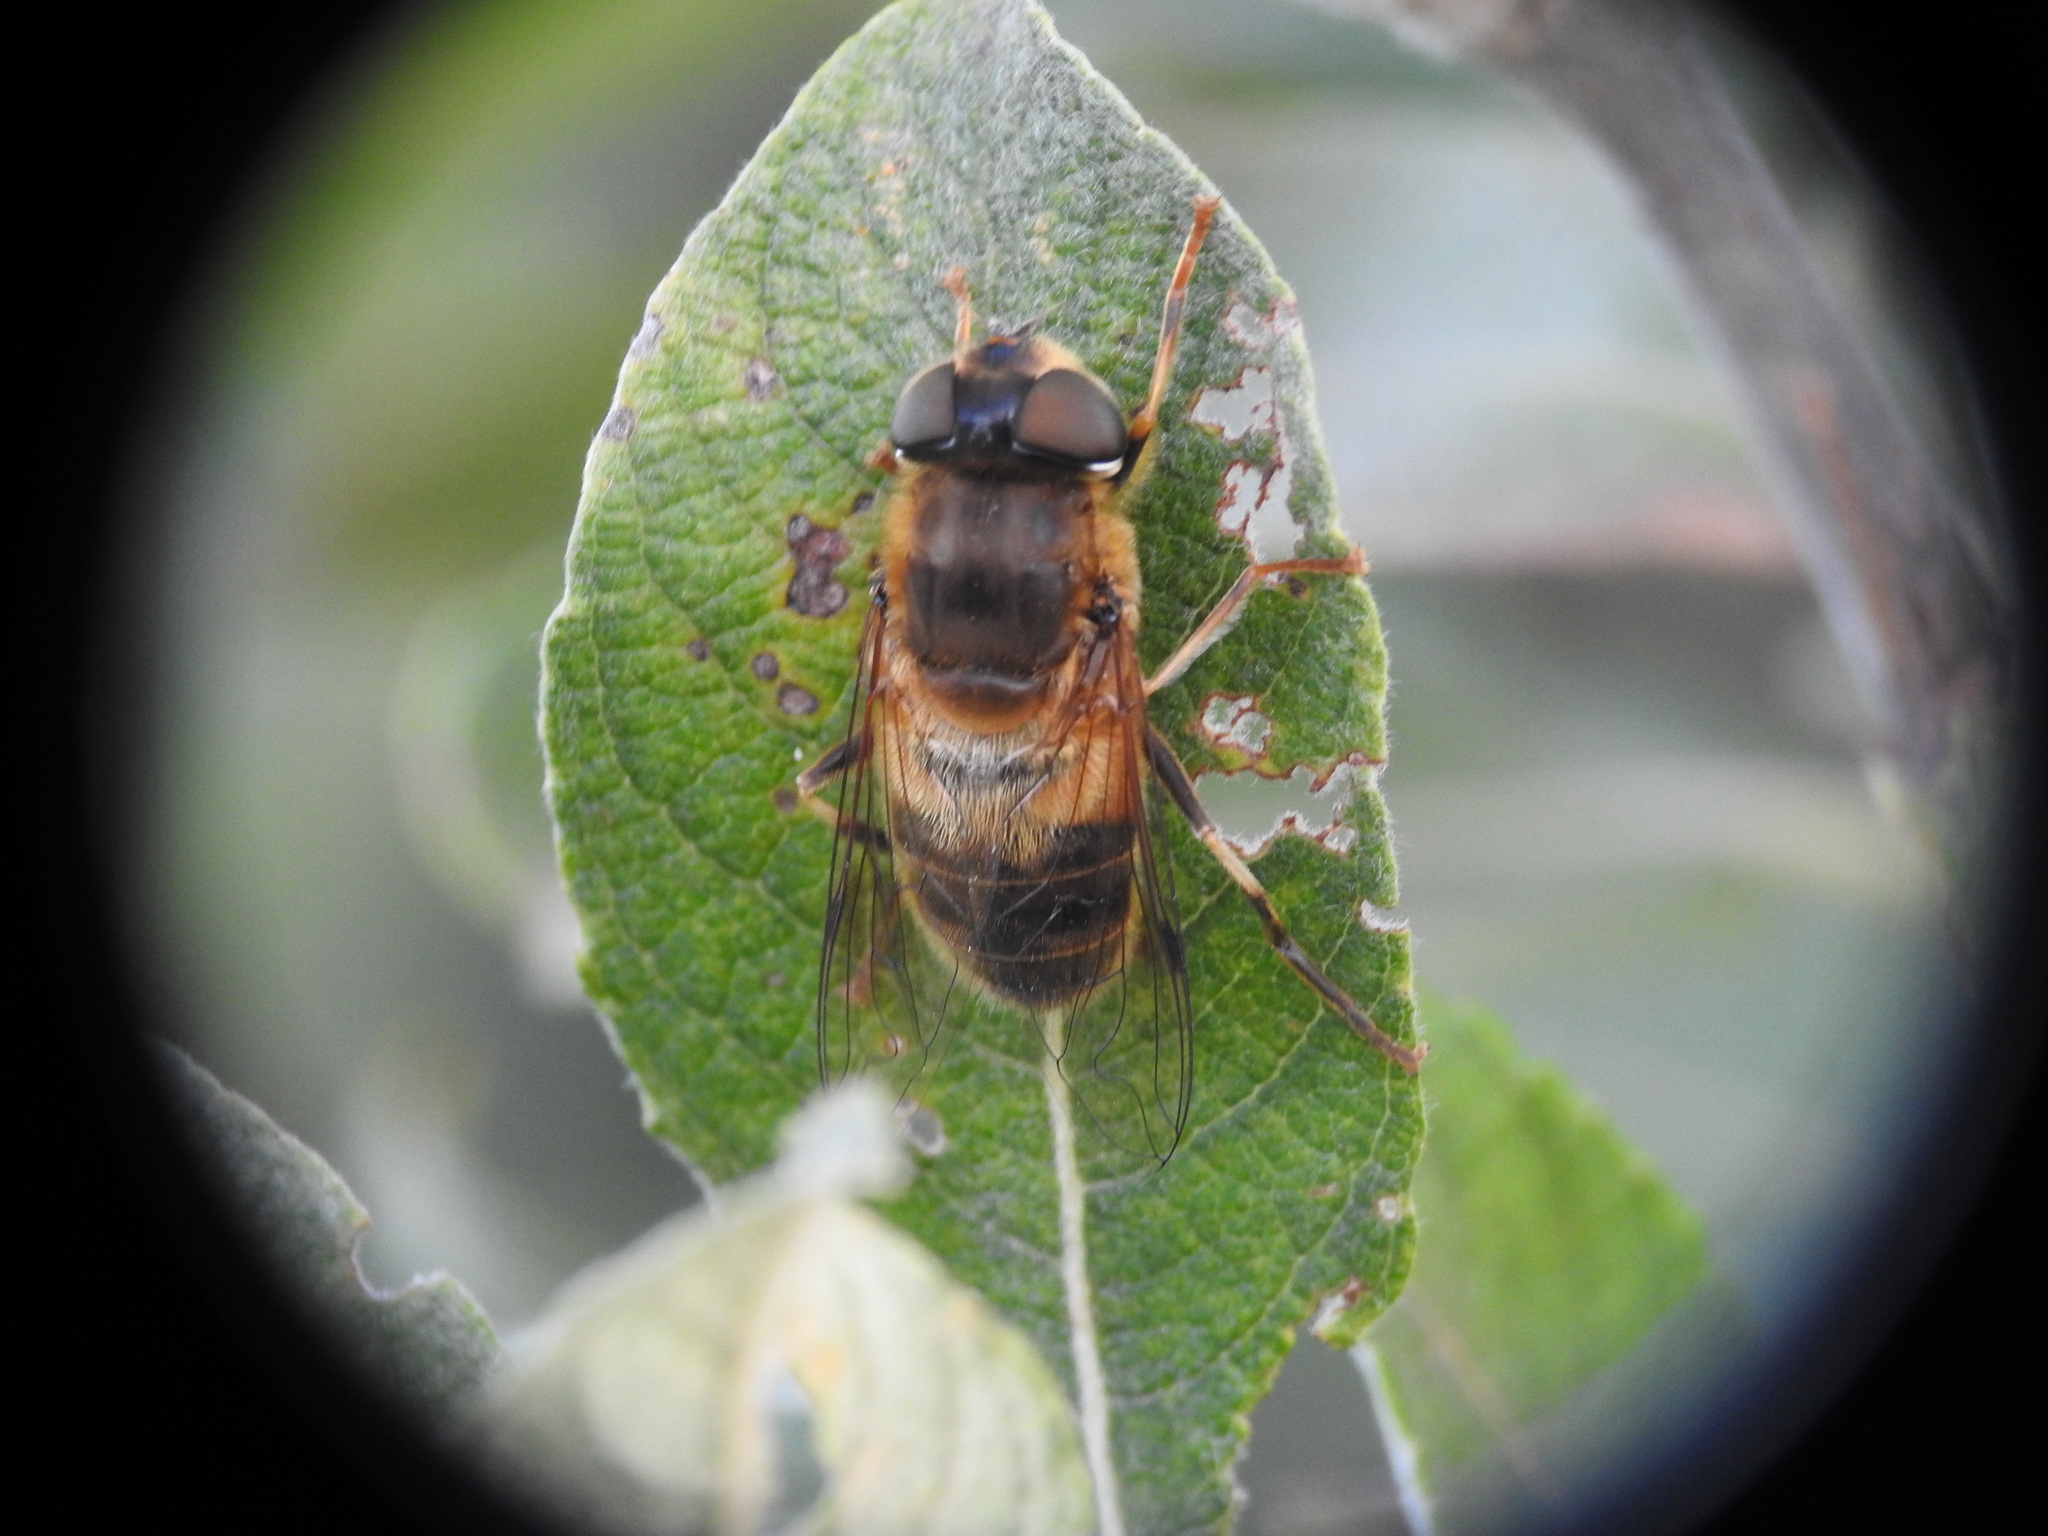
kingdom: Animalia
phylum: Arthropoda
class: Insecta
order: Diptera
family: Syrphidae
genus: Eristalis
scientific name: Eristalis pertinax
